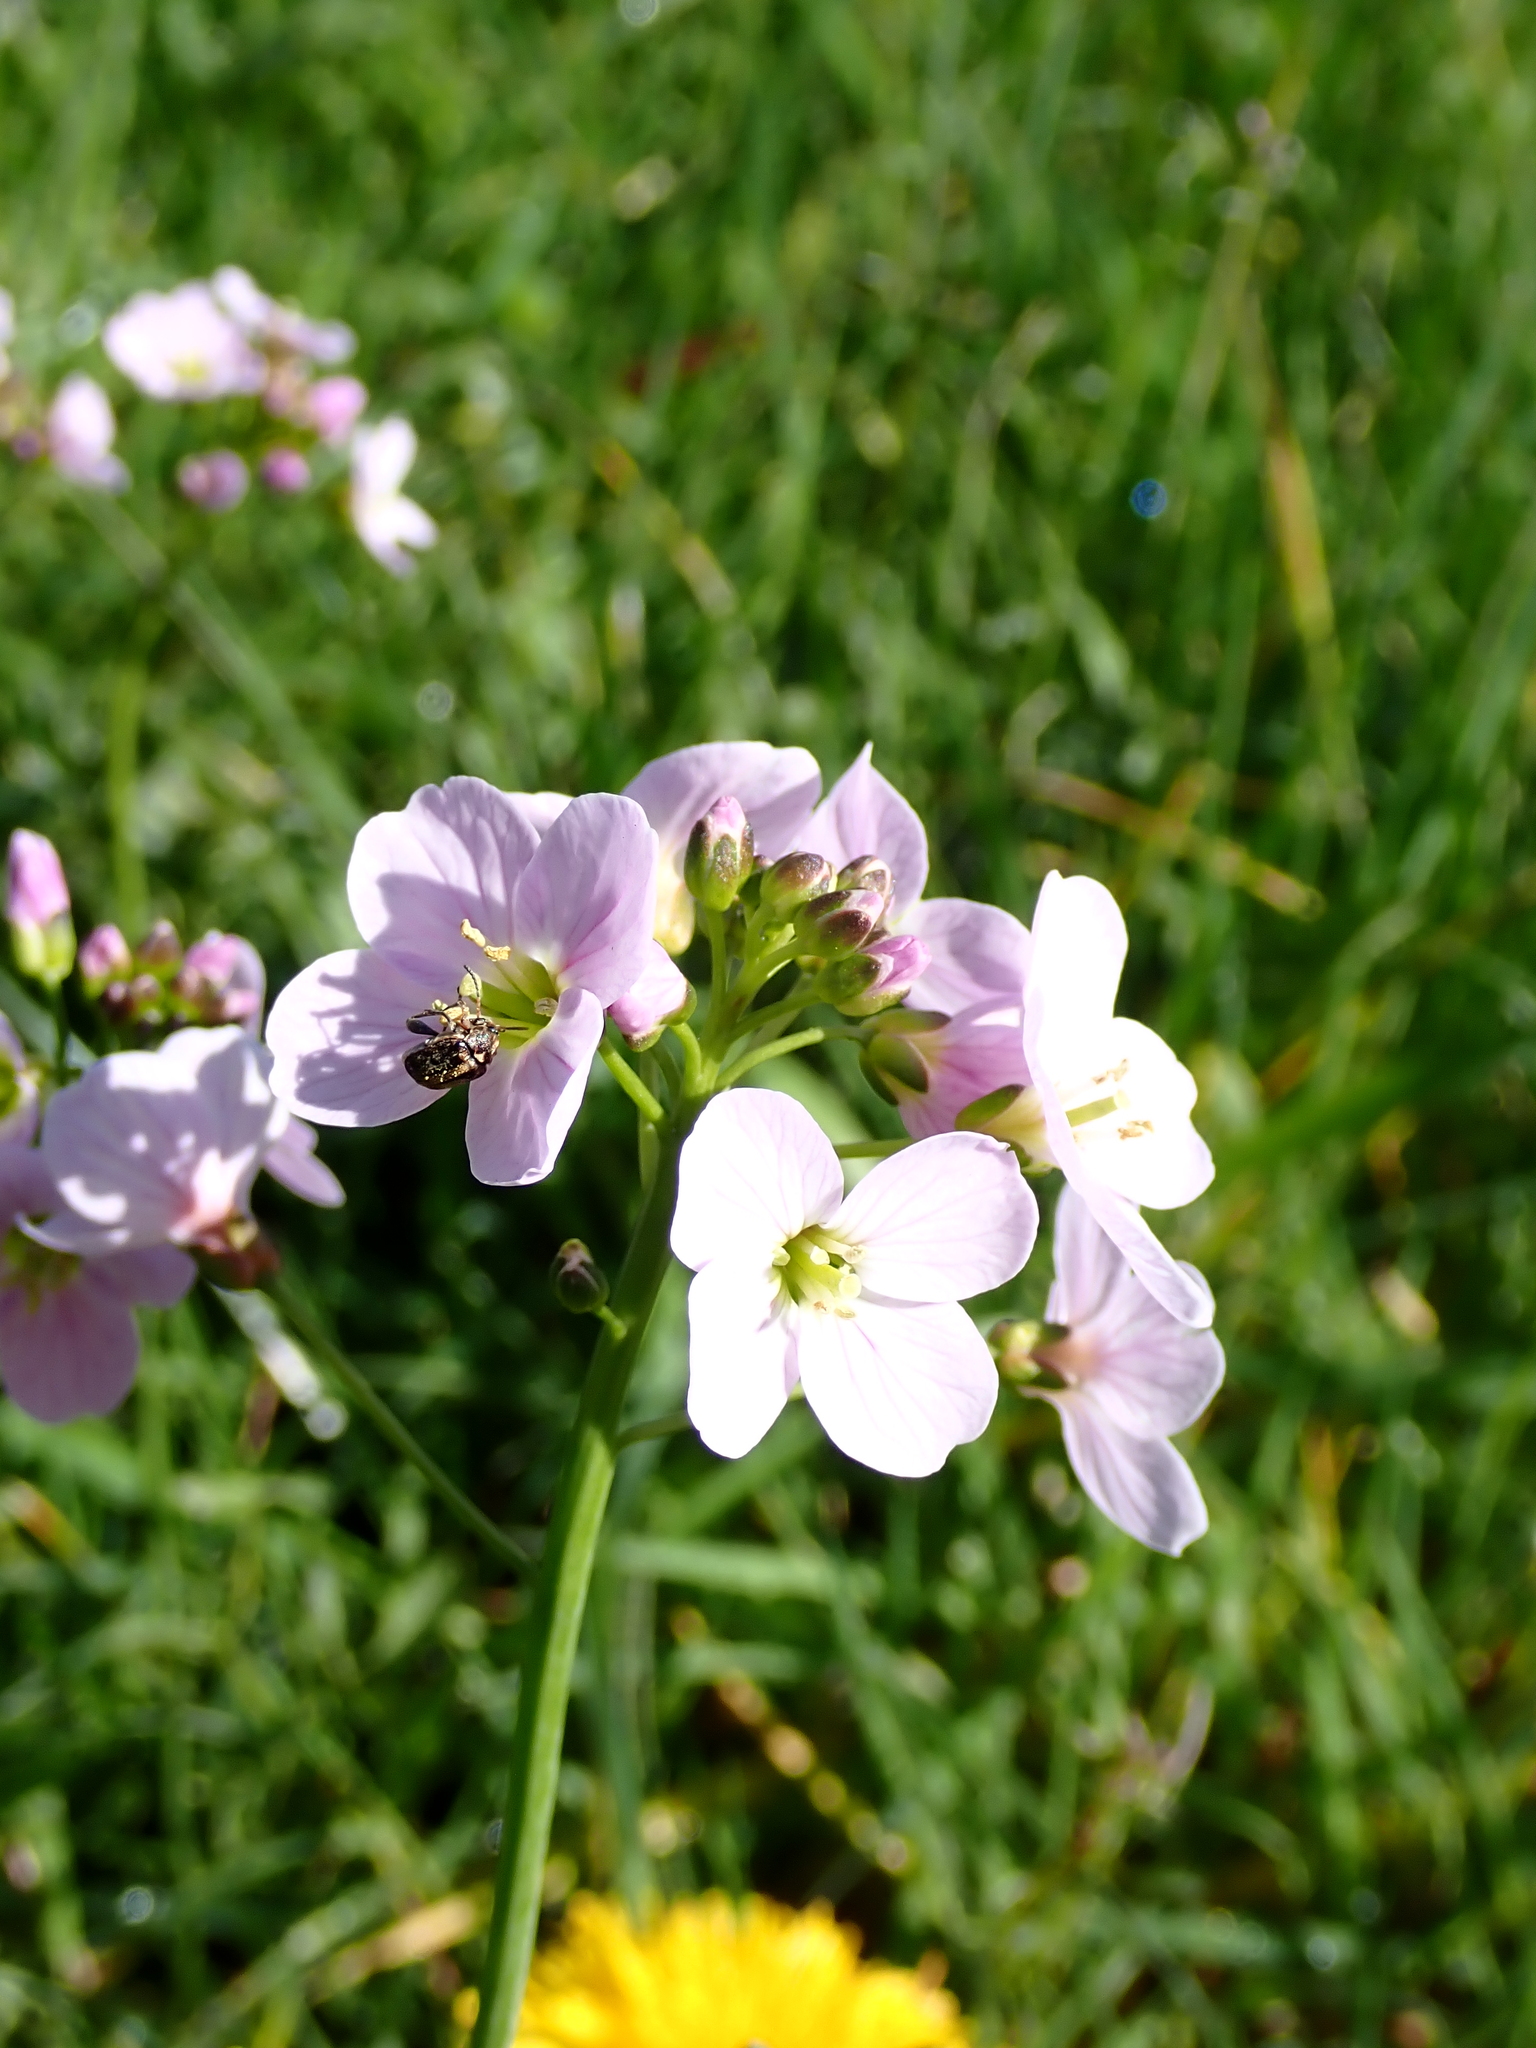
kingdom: Plantae
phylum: Tracheophyta
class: Magnoliopsida
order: Brassicales
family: Brassicaceae
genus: Cardamine
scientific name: Cardamine pratensis
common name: Cuckoo flower
